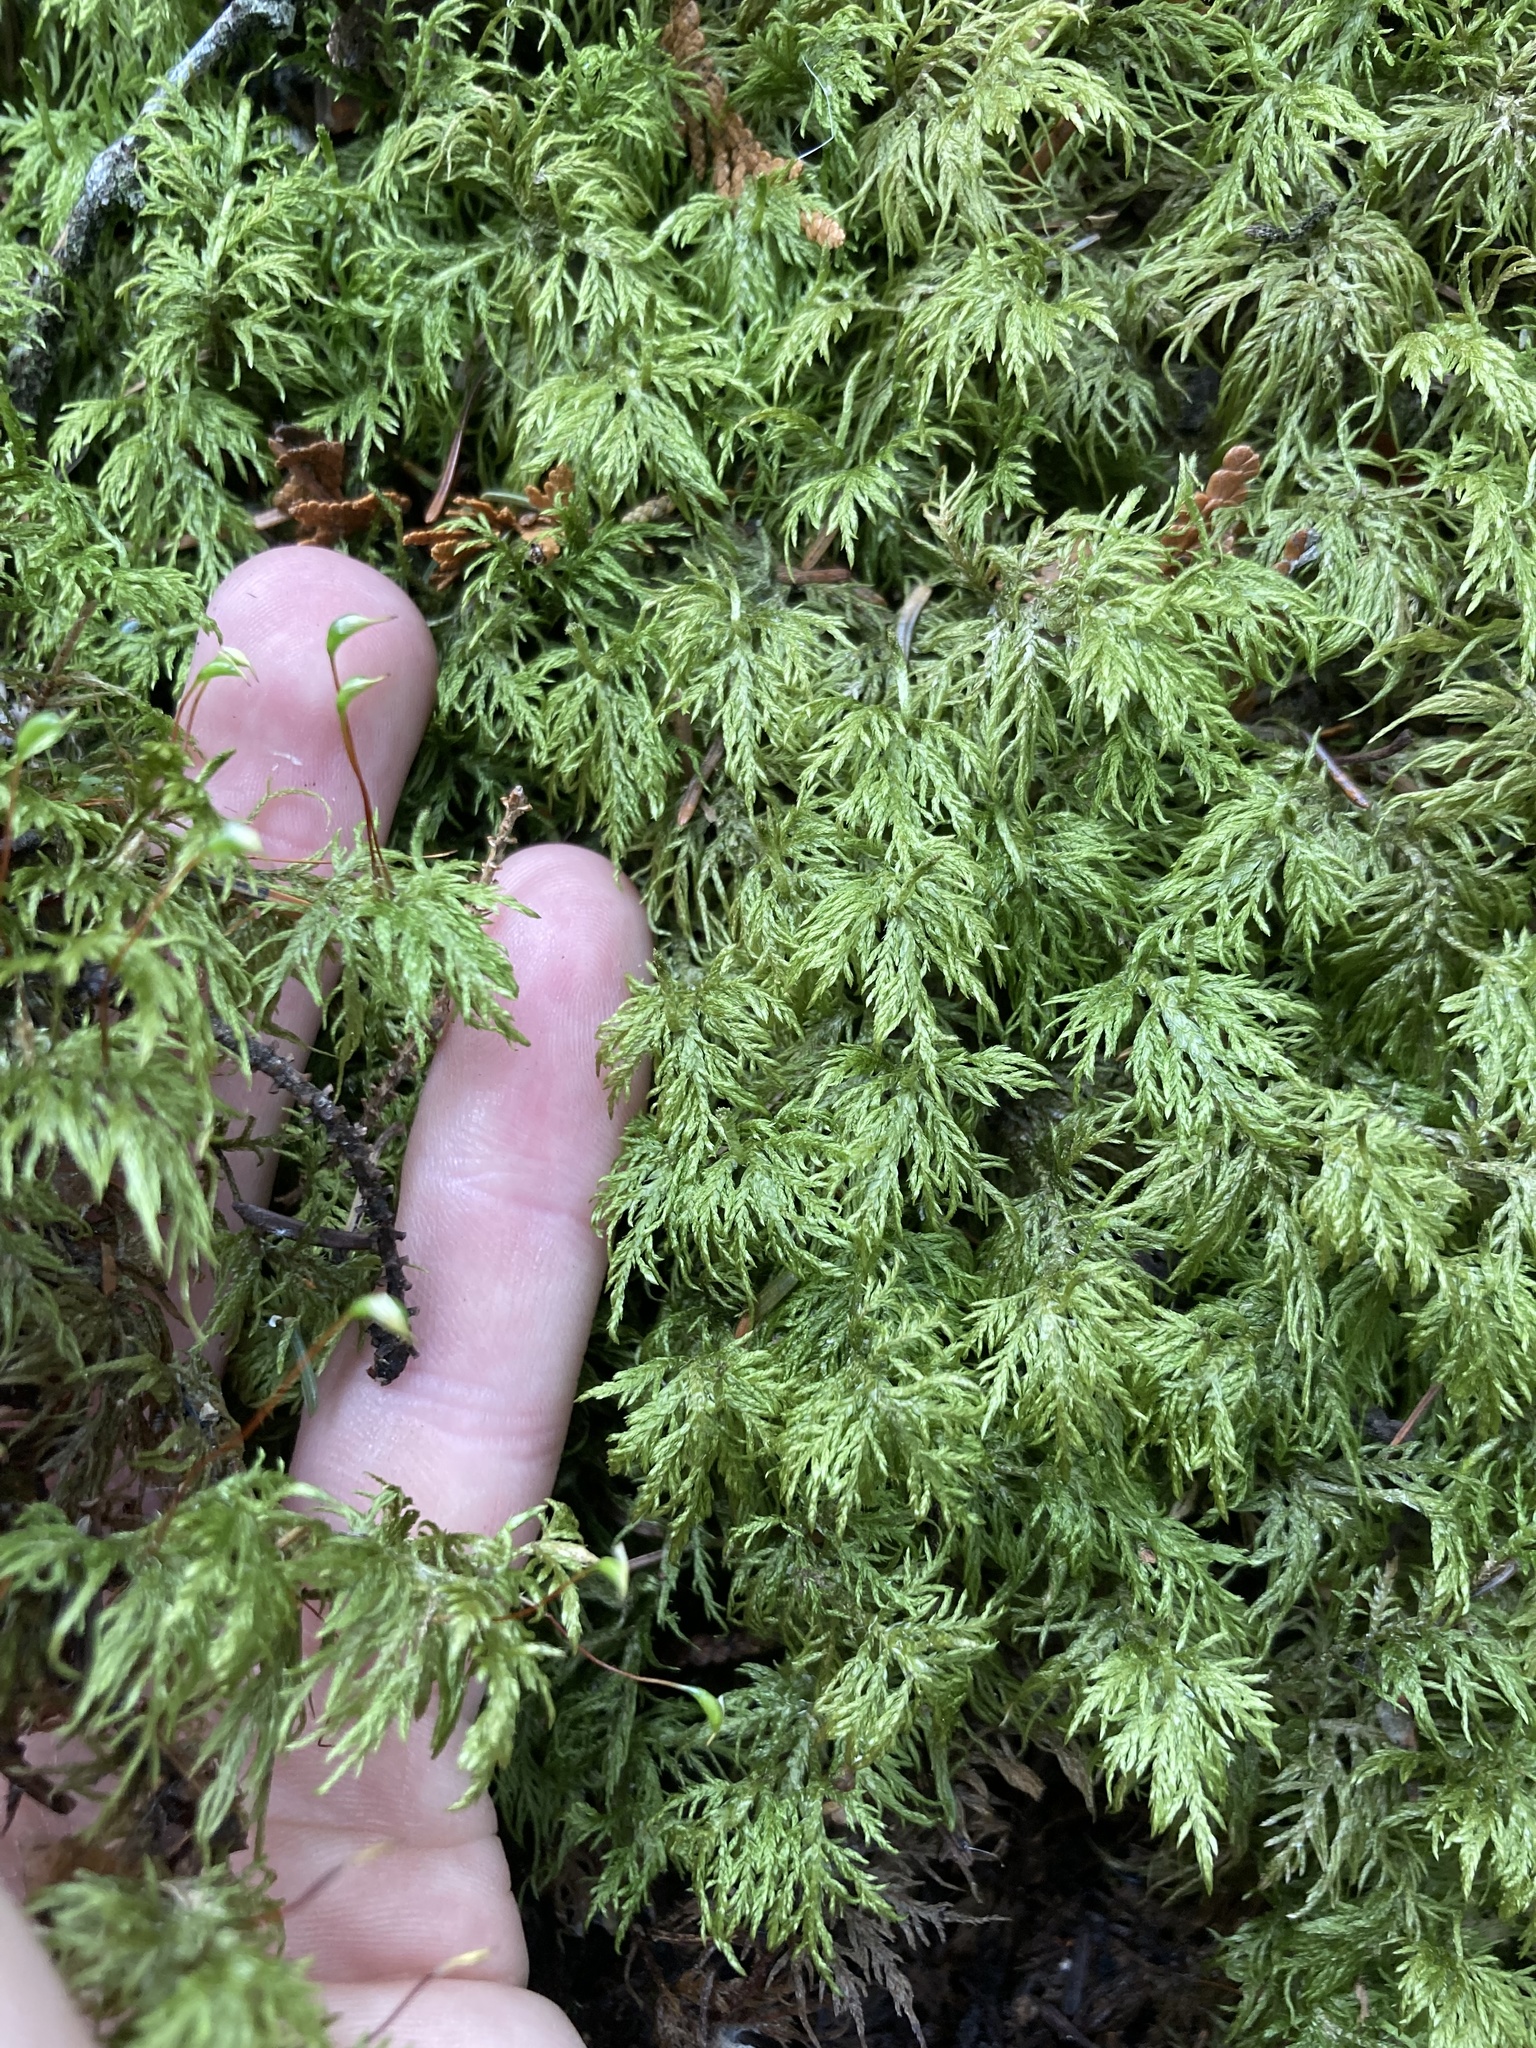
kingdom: Plantae
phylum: Bryophyta
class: Bryopsida
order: Hypnales
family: Hylocomiaceae
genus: Hylocomium
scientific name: Hylocomium splendens
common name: Stairstep moss
